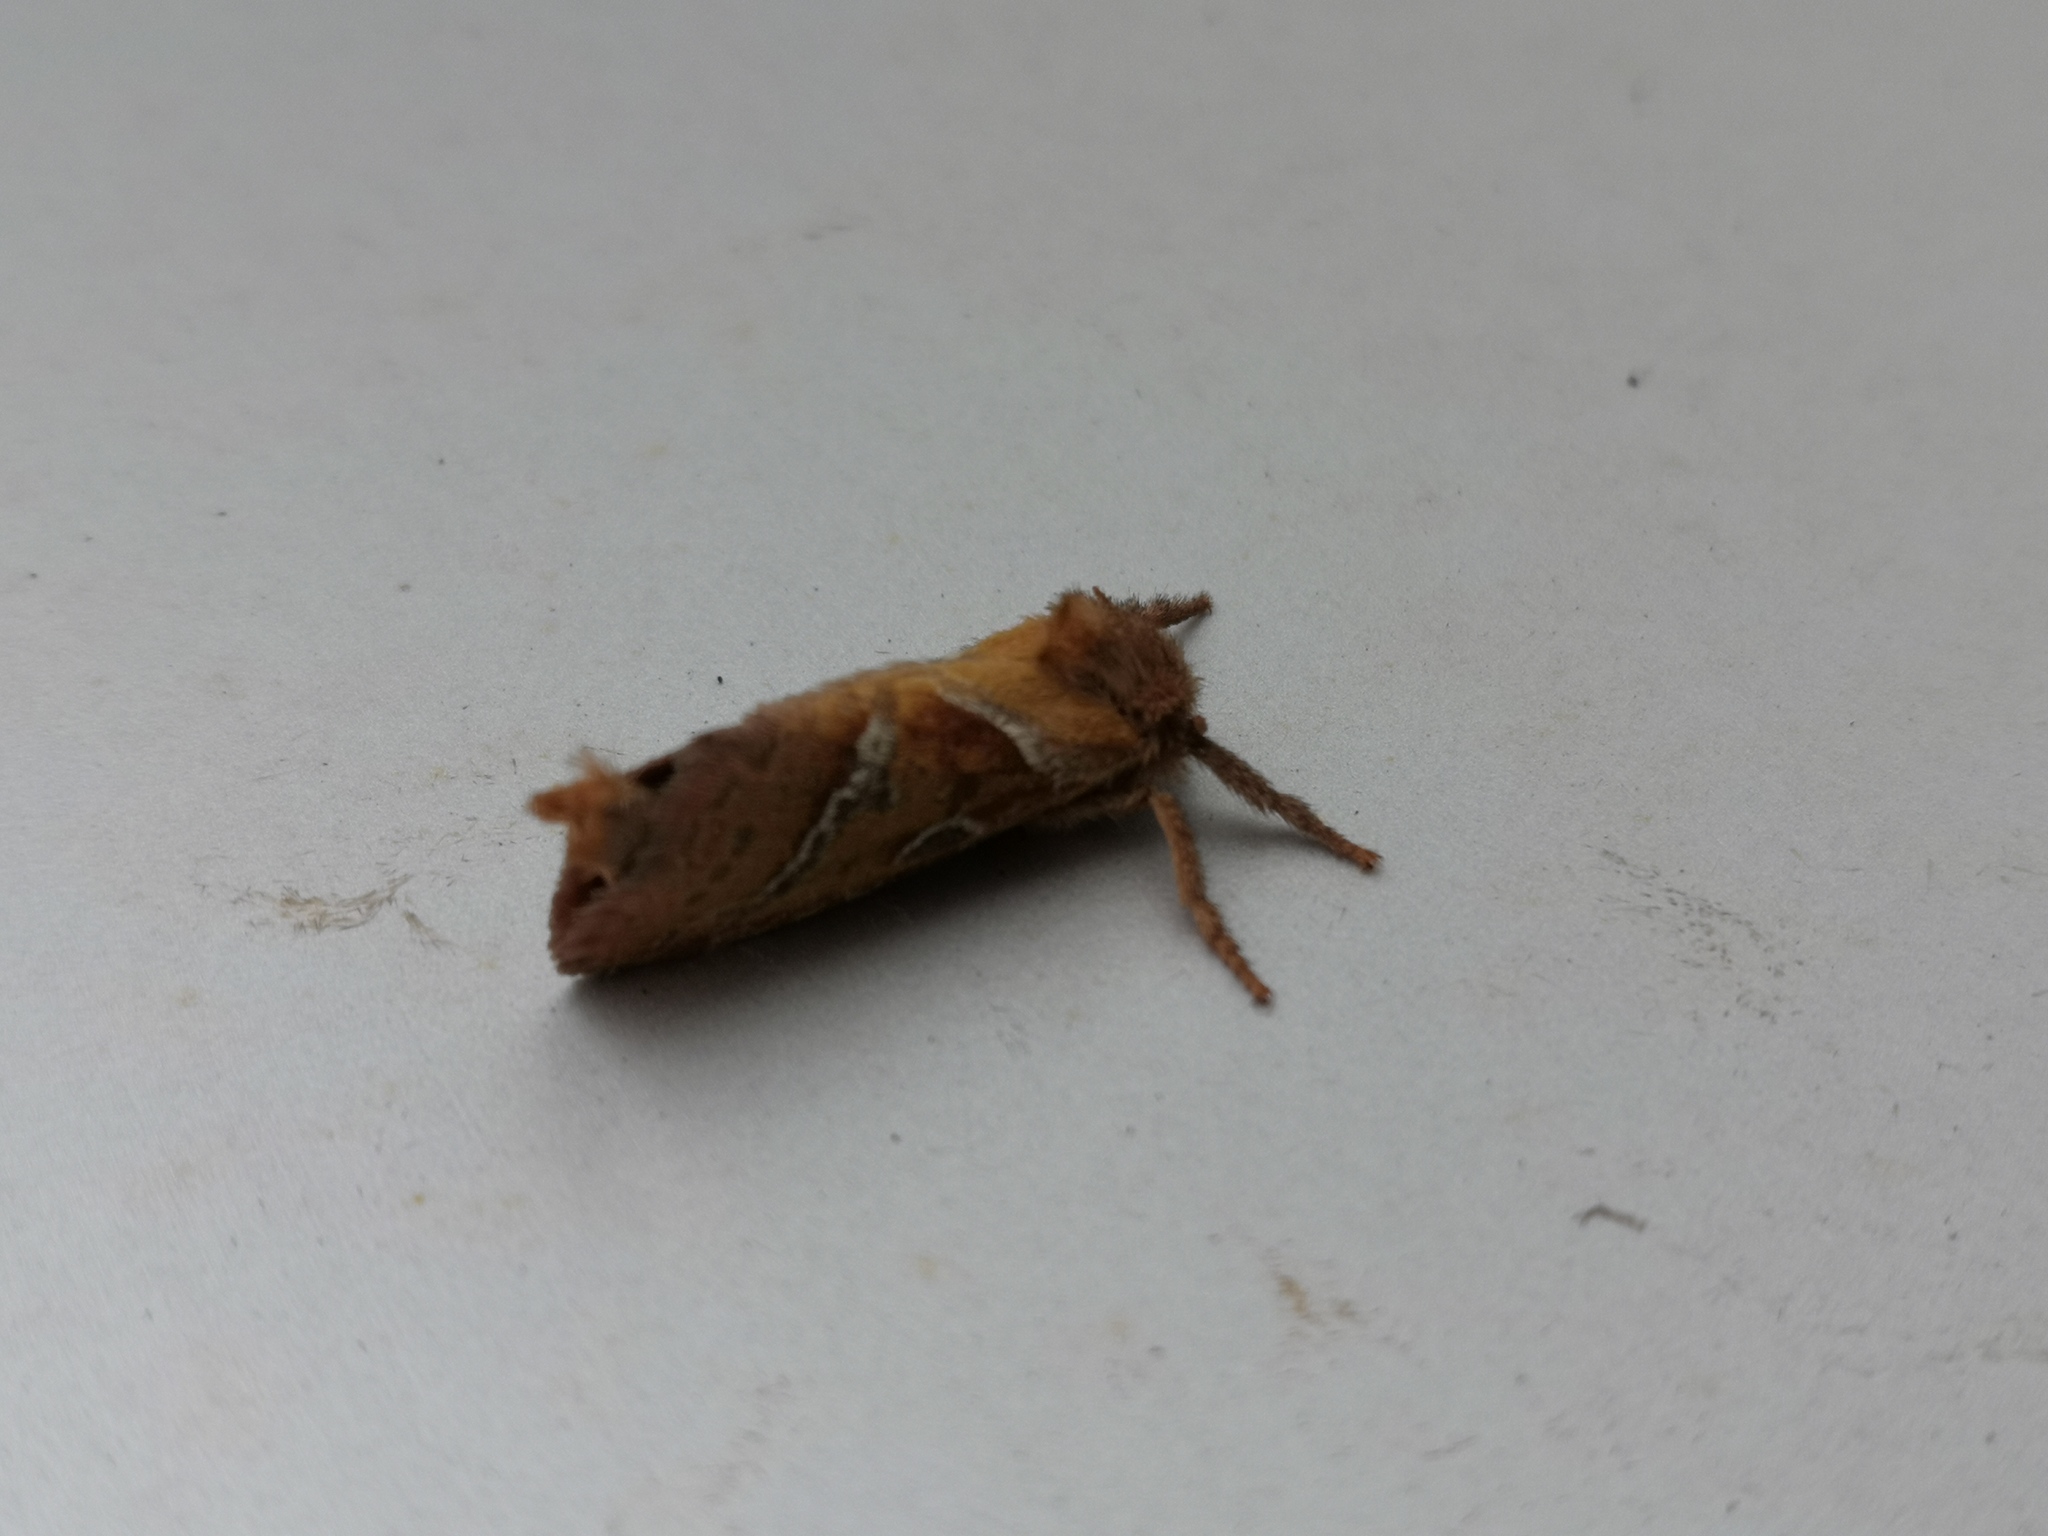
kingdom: Animalia
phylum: Arthropoda
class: Insecta
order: Lepidoptera
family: Hepialidae
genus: Triodia
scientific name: Triodia sylvina
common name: Orange swift
